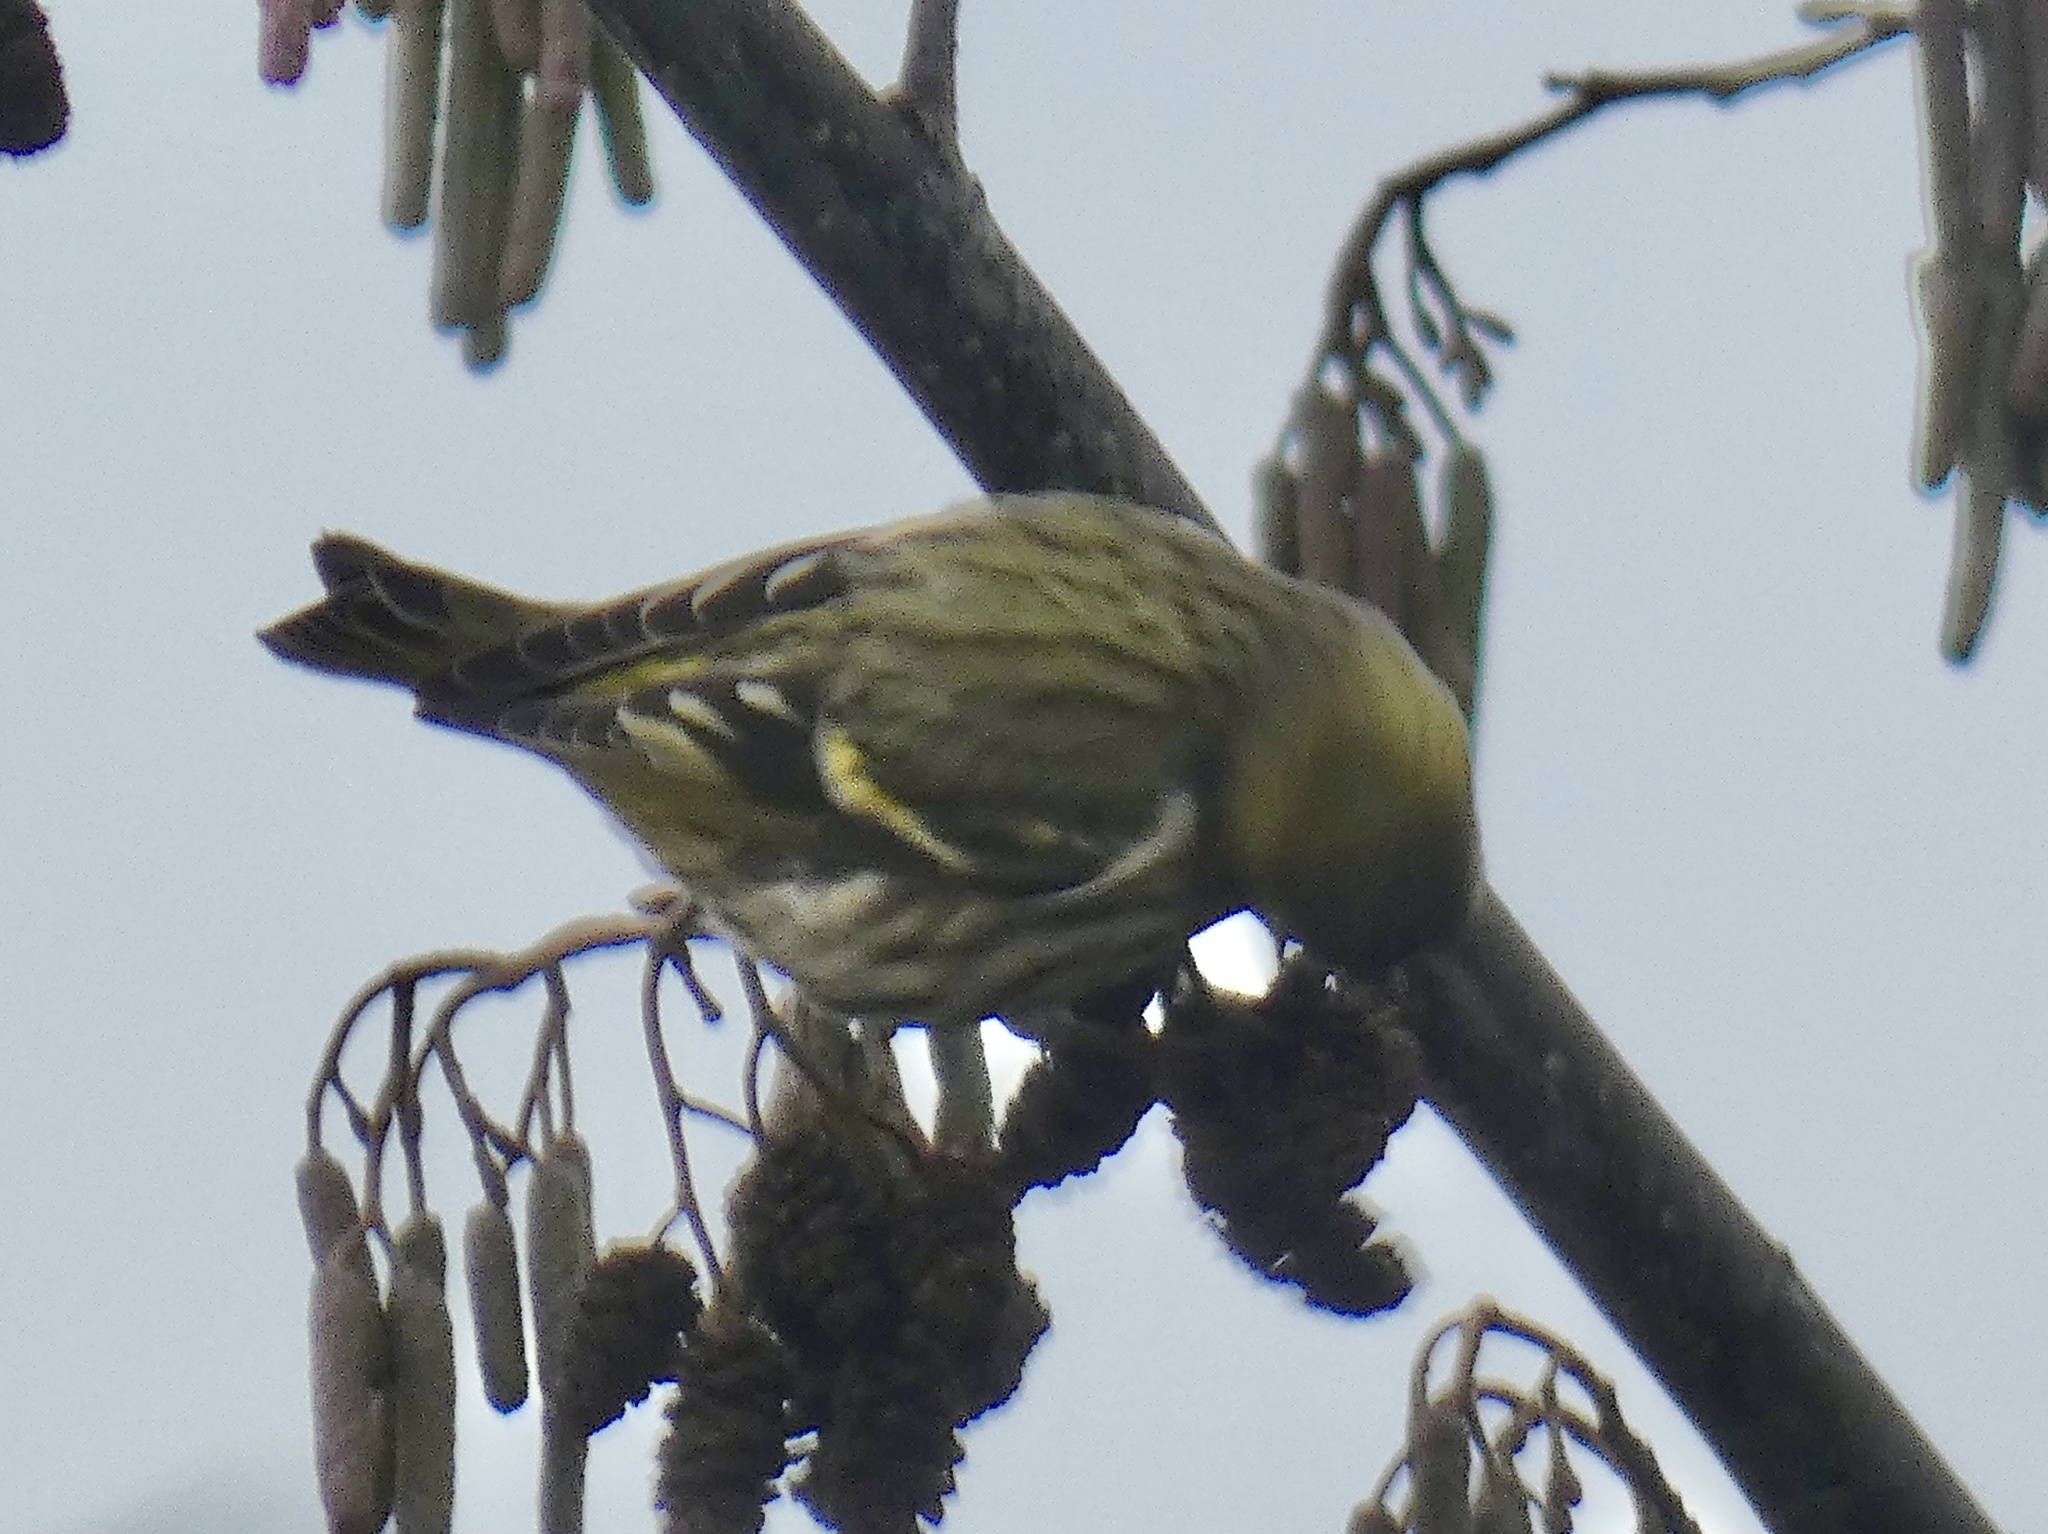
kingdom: Animalia
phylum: Chordata
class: Aves
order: Passeriformes
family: Fringillidae
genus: Spinus
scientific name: Spinus spinus
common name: Eurasian siskin
